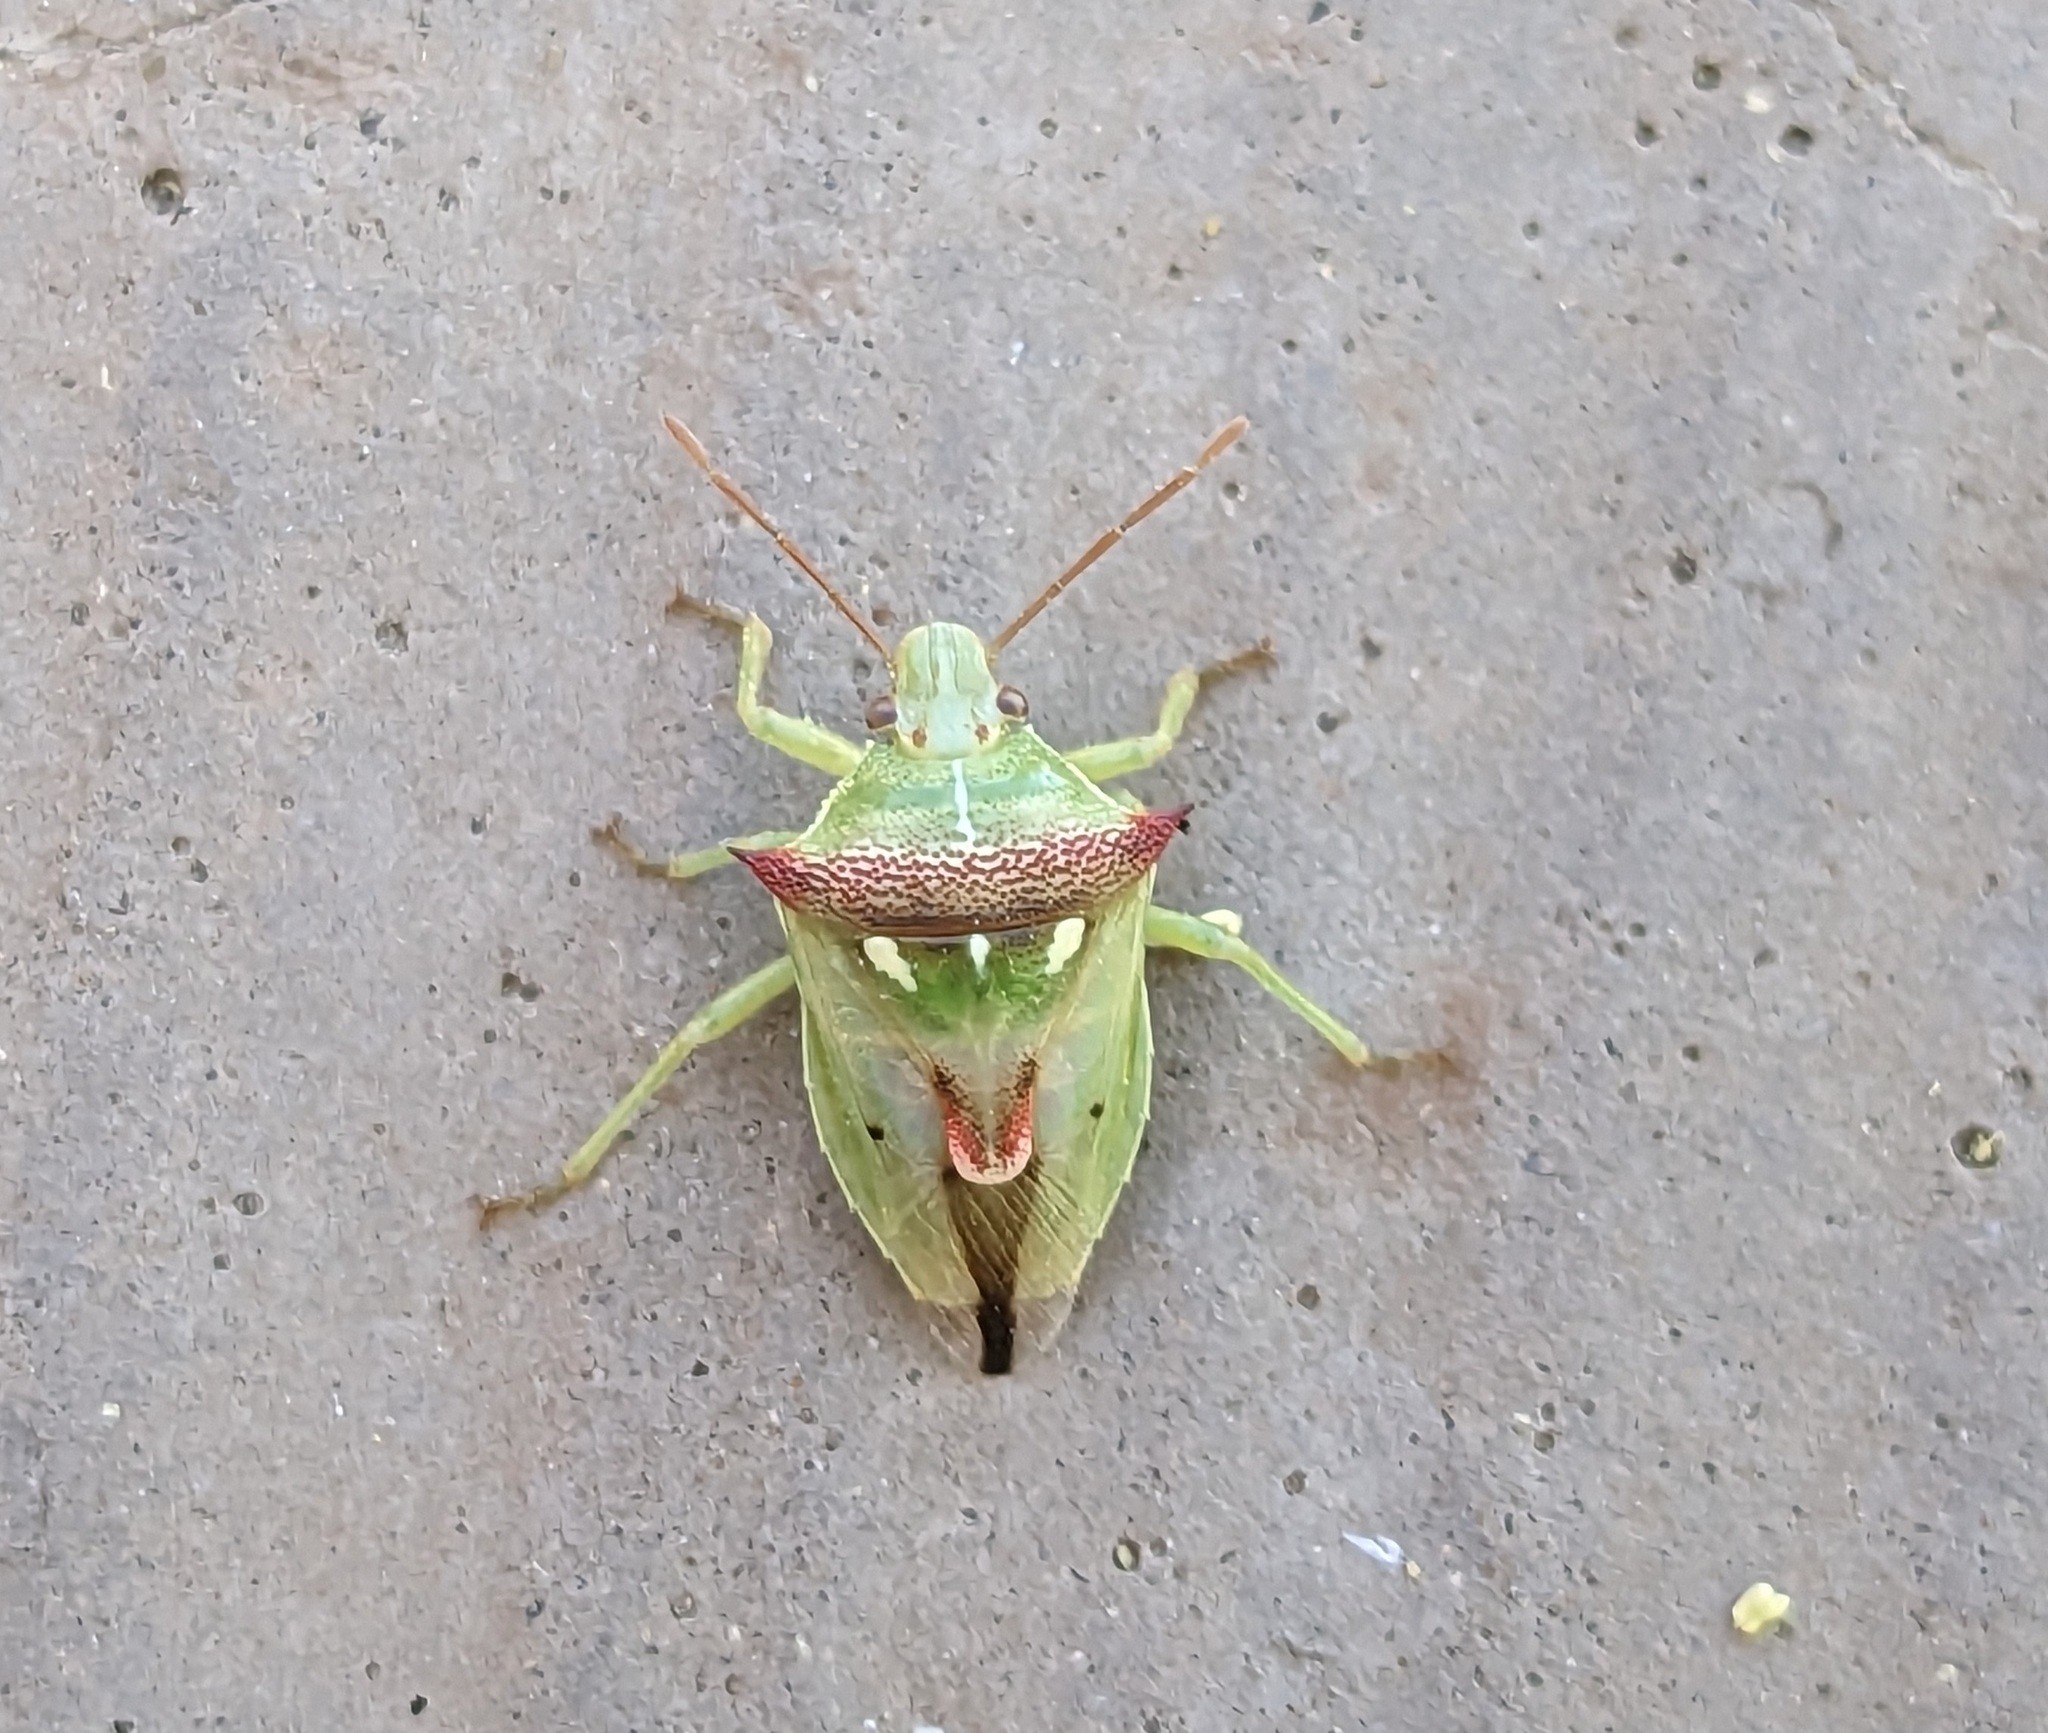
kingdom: Animalia
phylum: Arthropoda
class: Insecta
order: Hemiptera
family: Pentatomidae
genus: Tylospilus
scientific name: Tylospilus acutissimus
